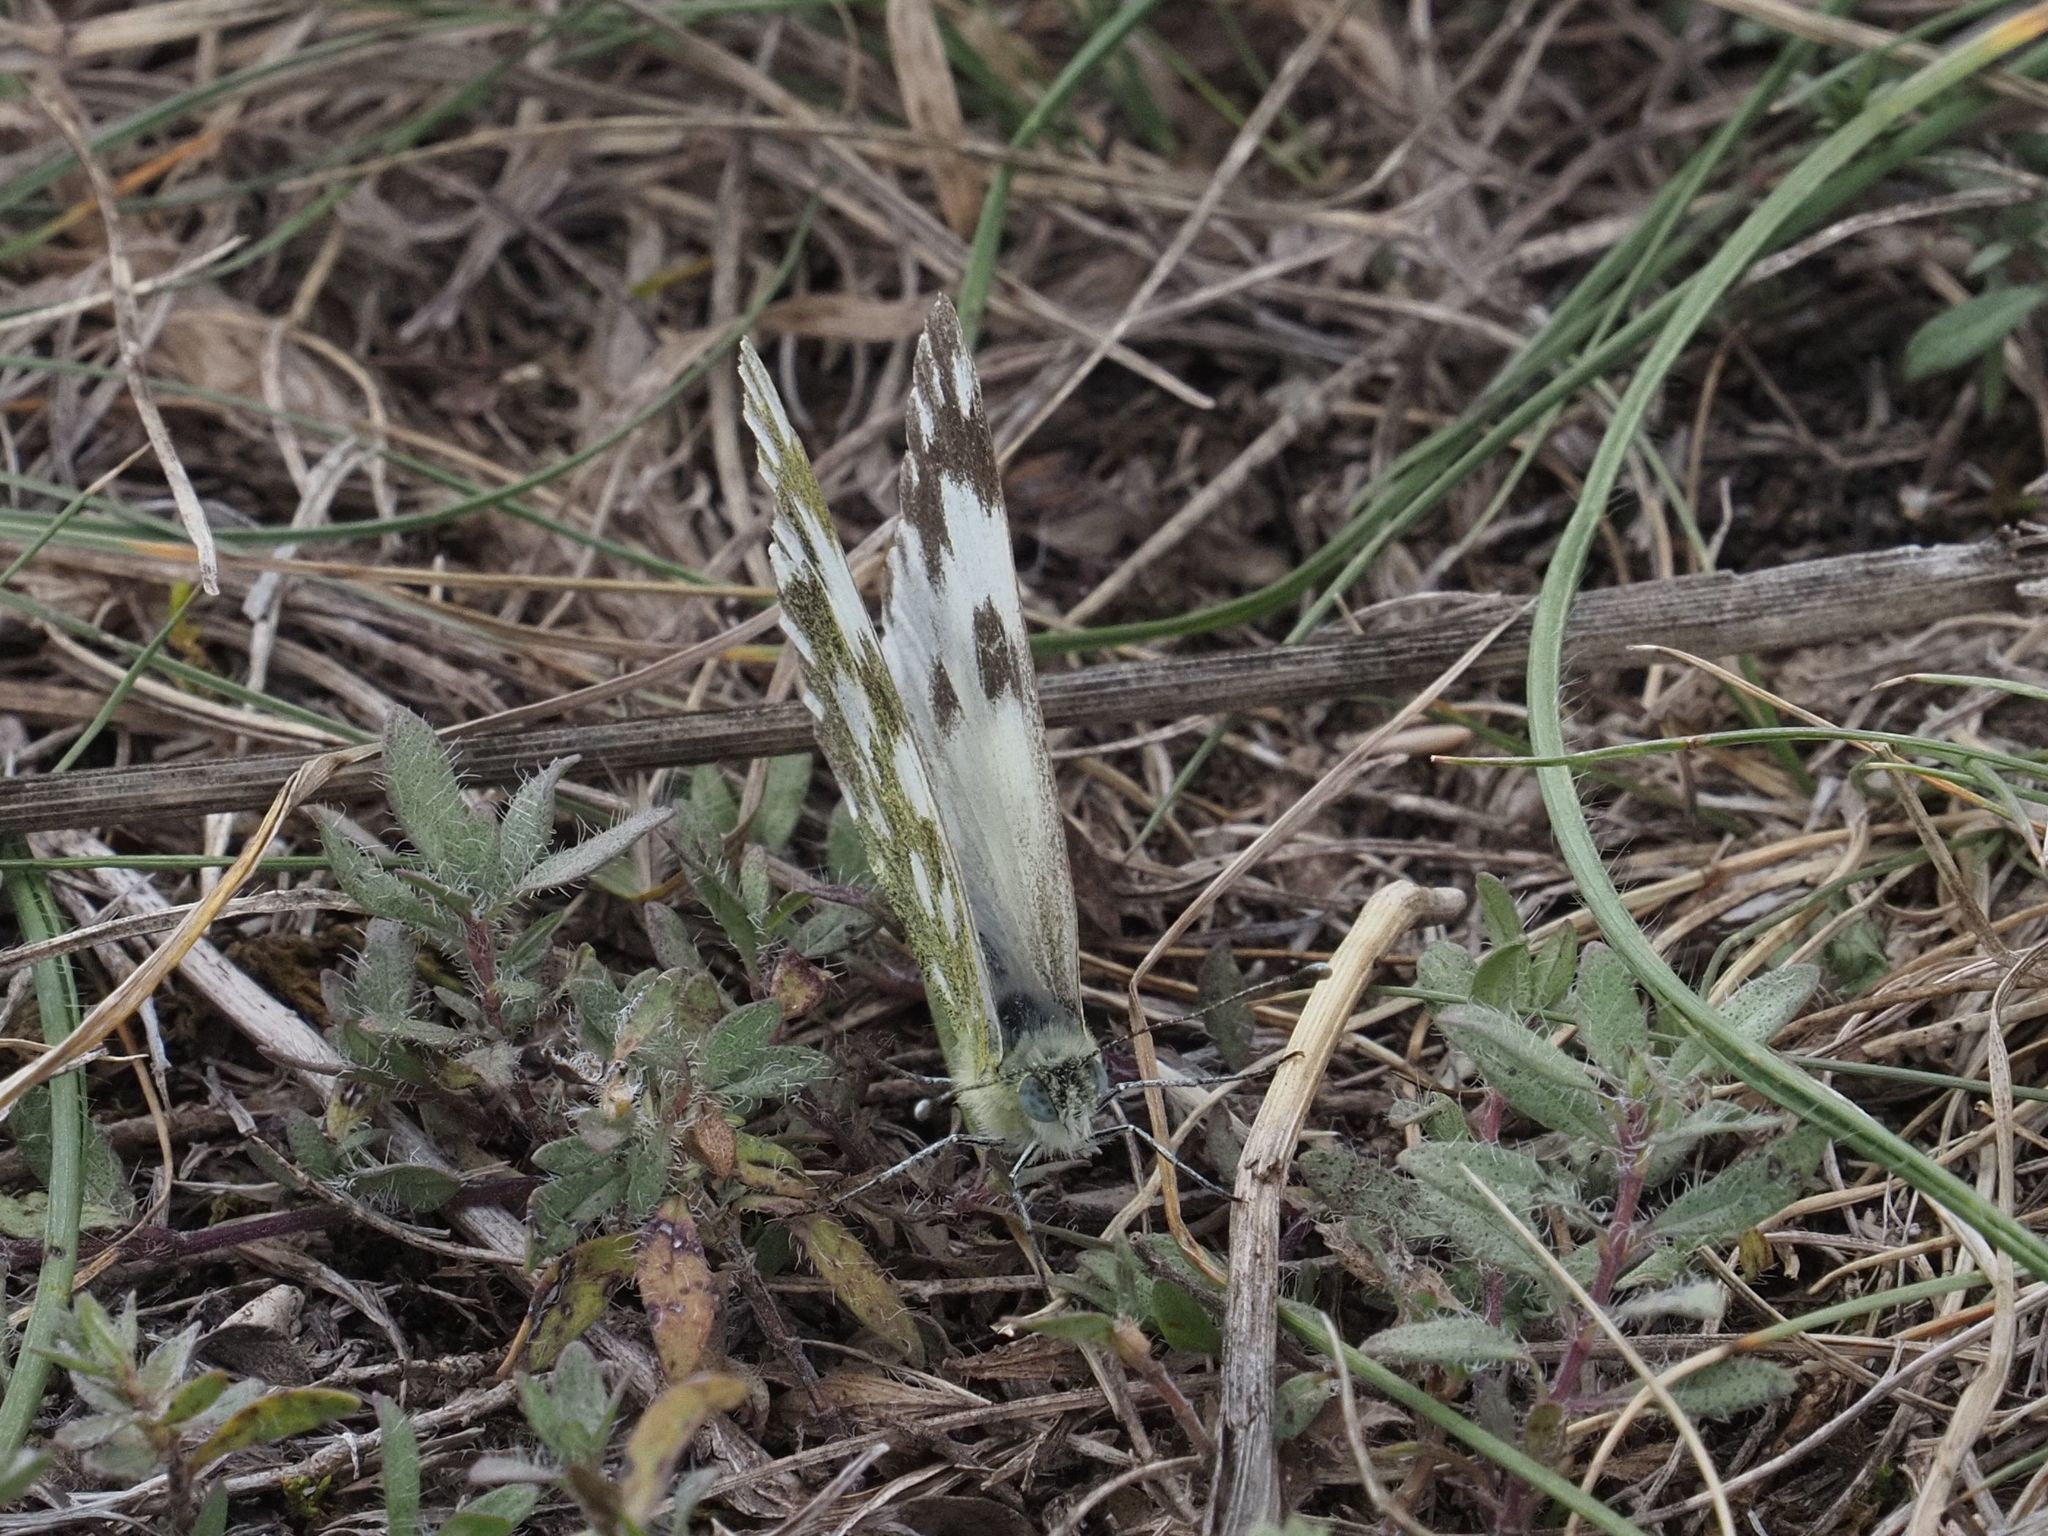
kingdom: Animalia
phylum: Arthropoda
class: Insecta
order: Lepidoptera
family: Pieridae
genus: Pontia
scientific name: Pontia edusa
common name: Eastern bath white
